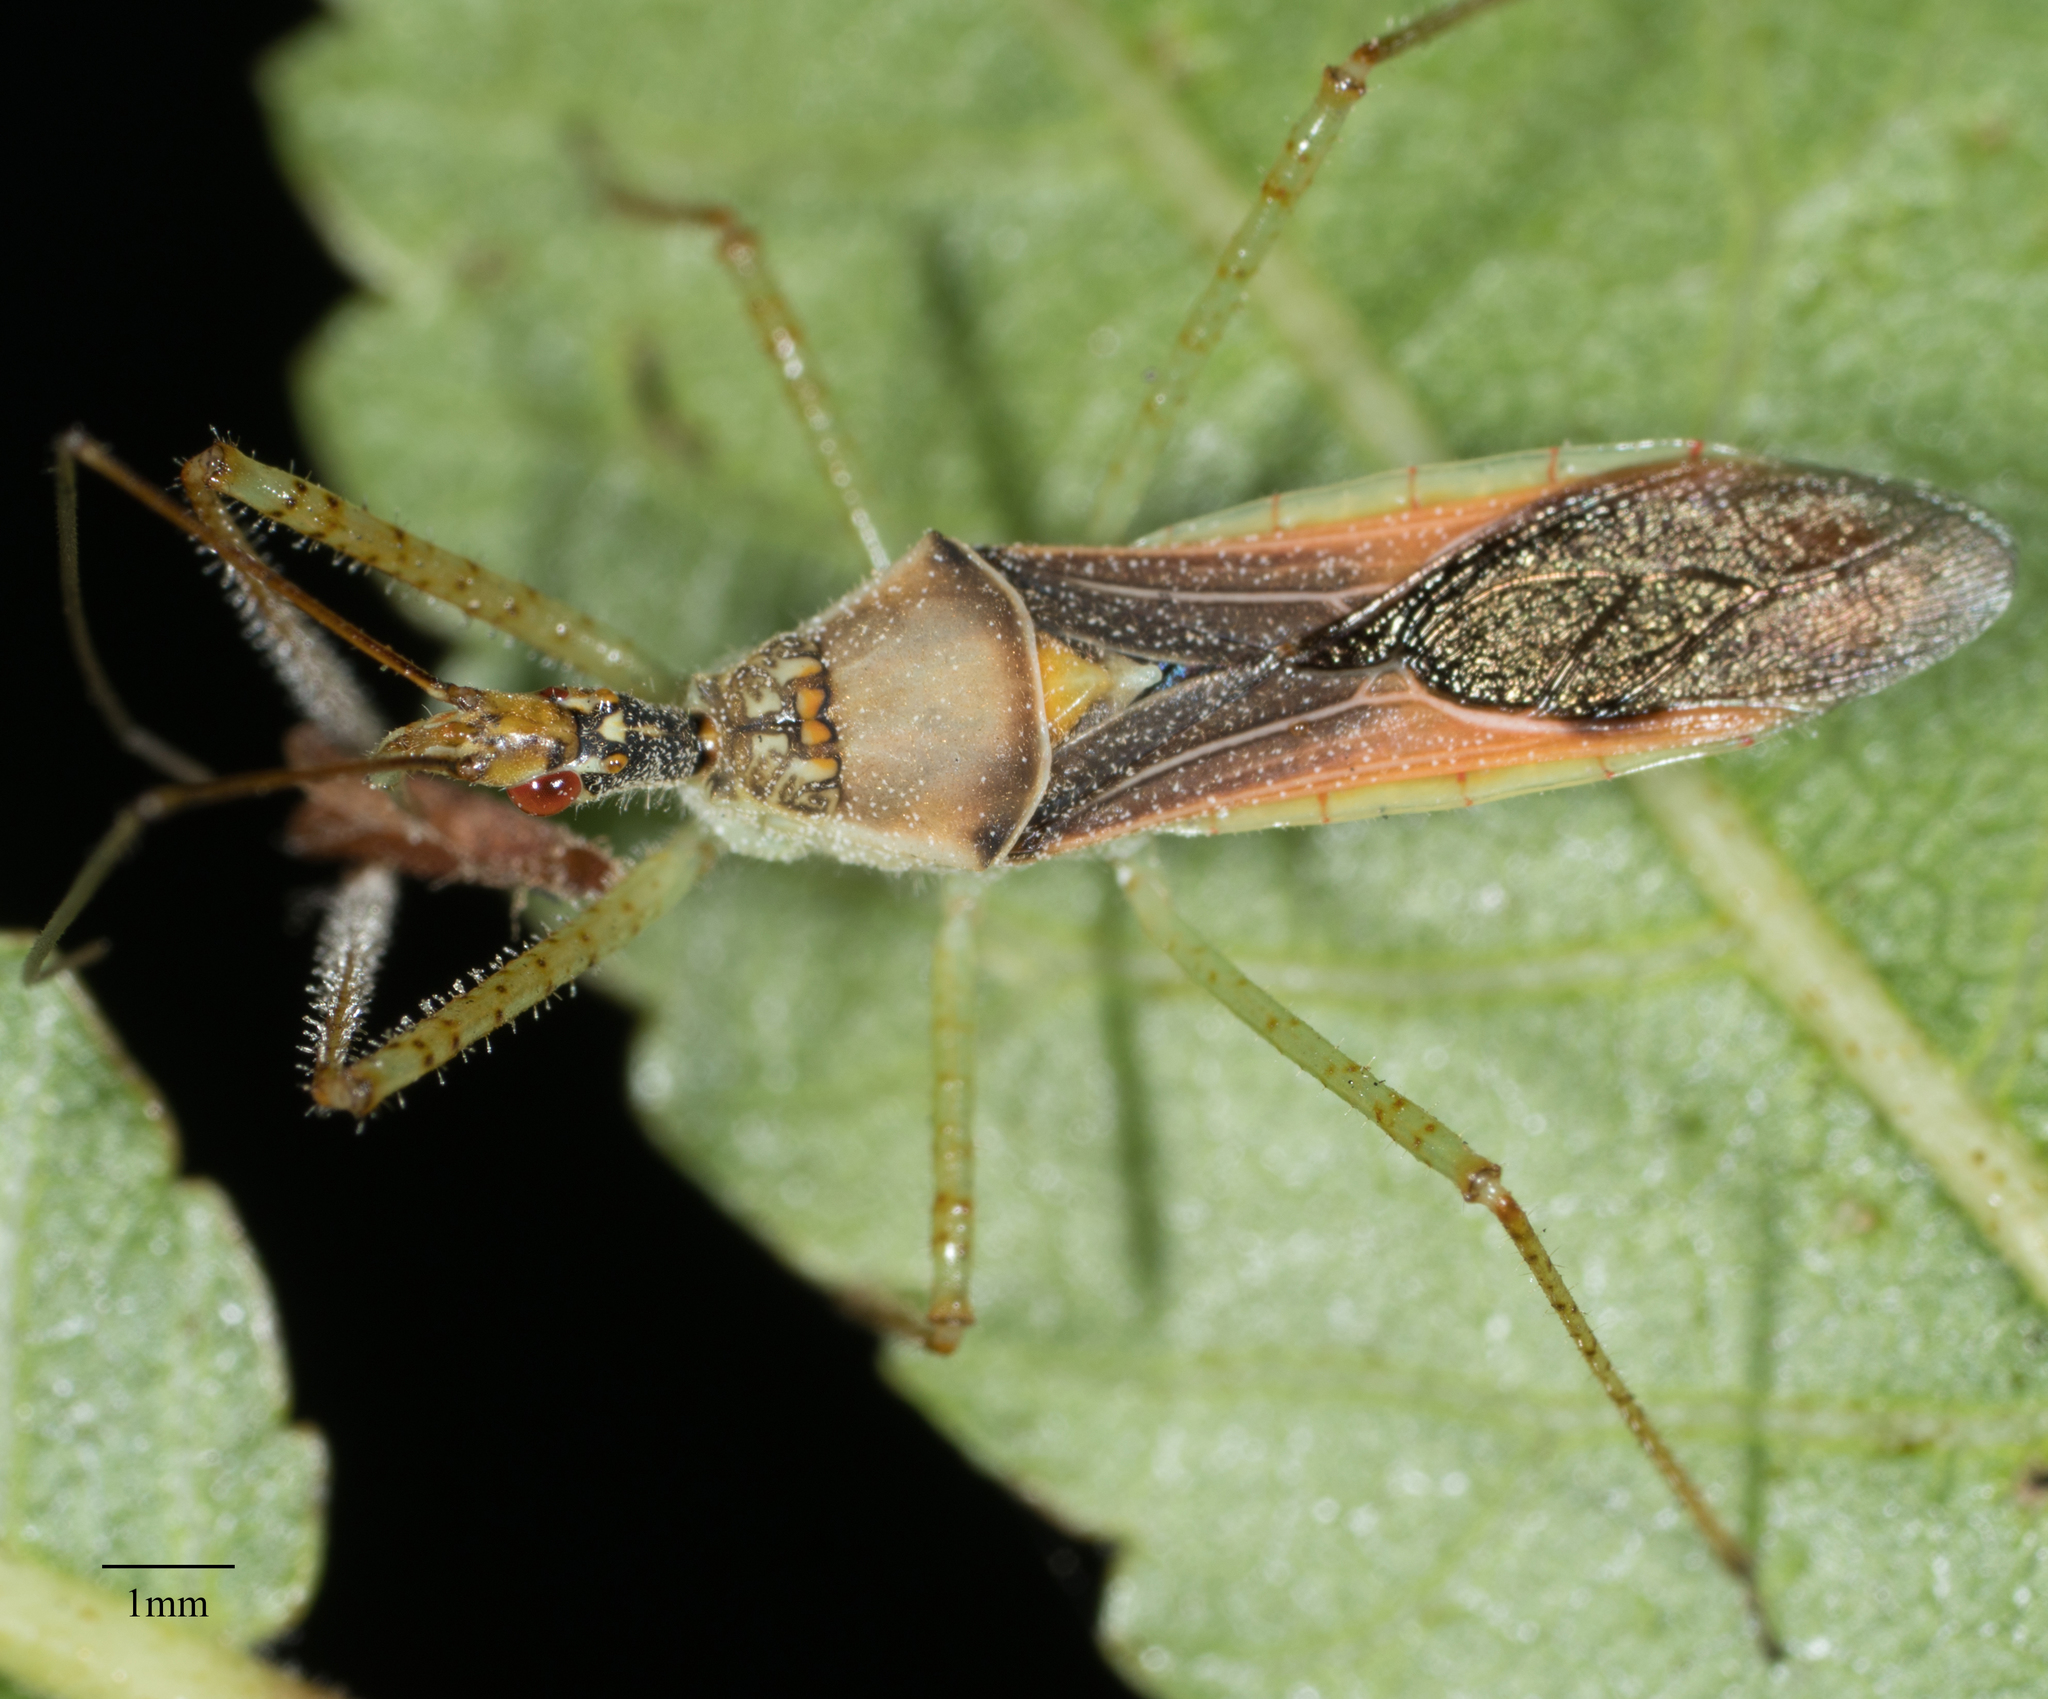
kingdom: Animalia
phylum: Arthropoda
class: Insecta
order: Hemiptera
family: Reduviidae
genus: Zelus
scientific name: Zelus renardii
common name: Assassin bug
